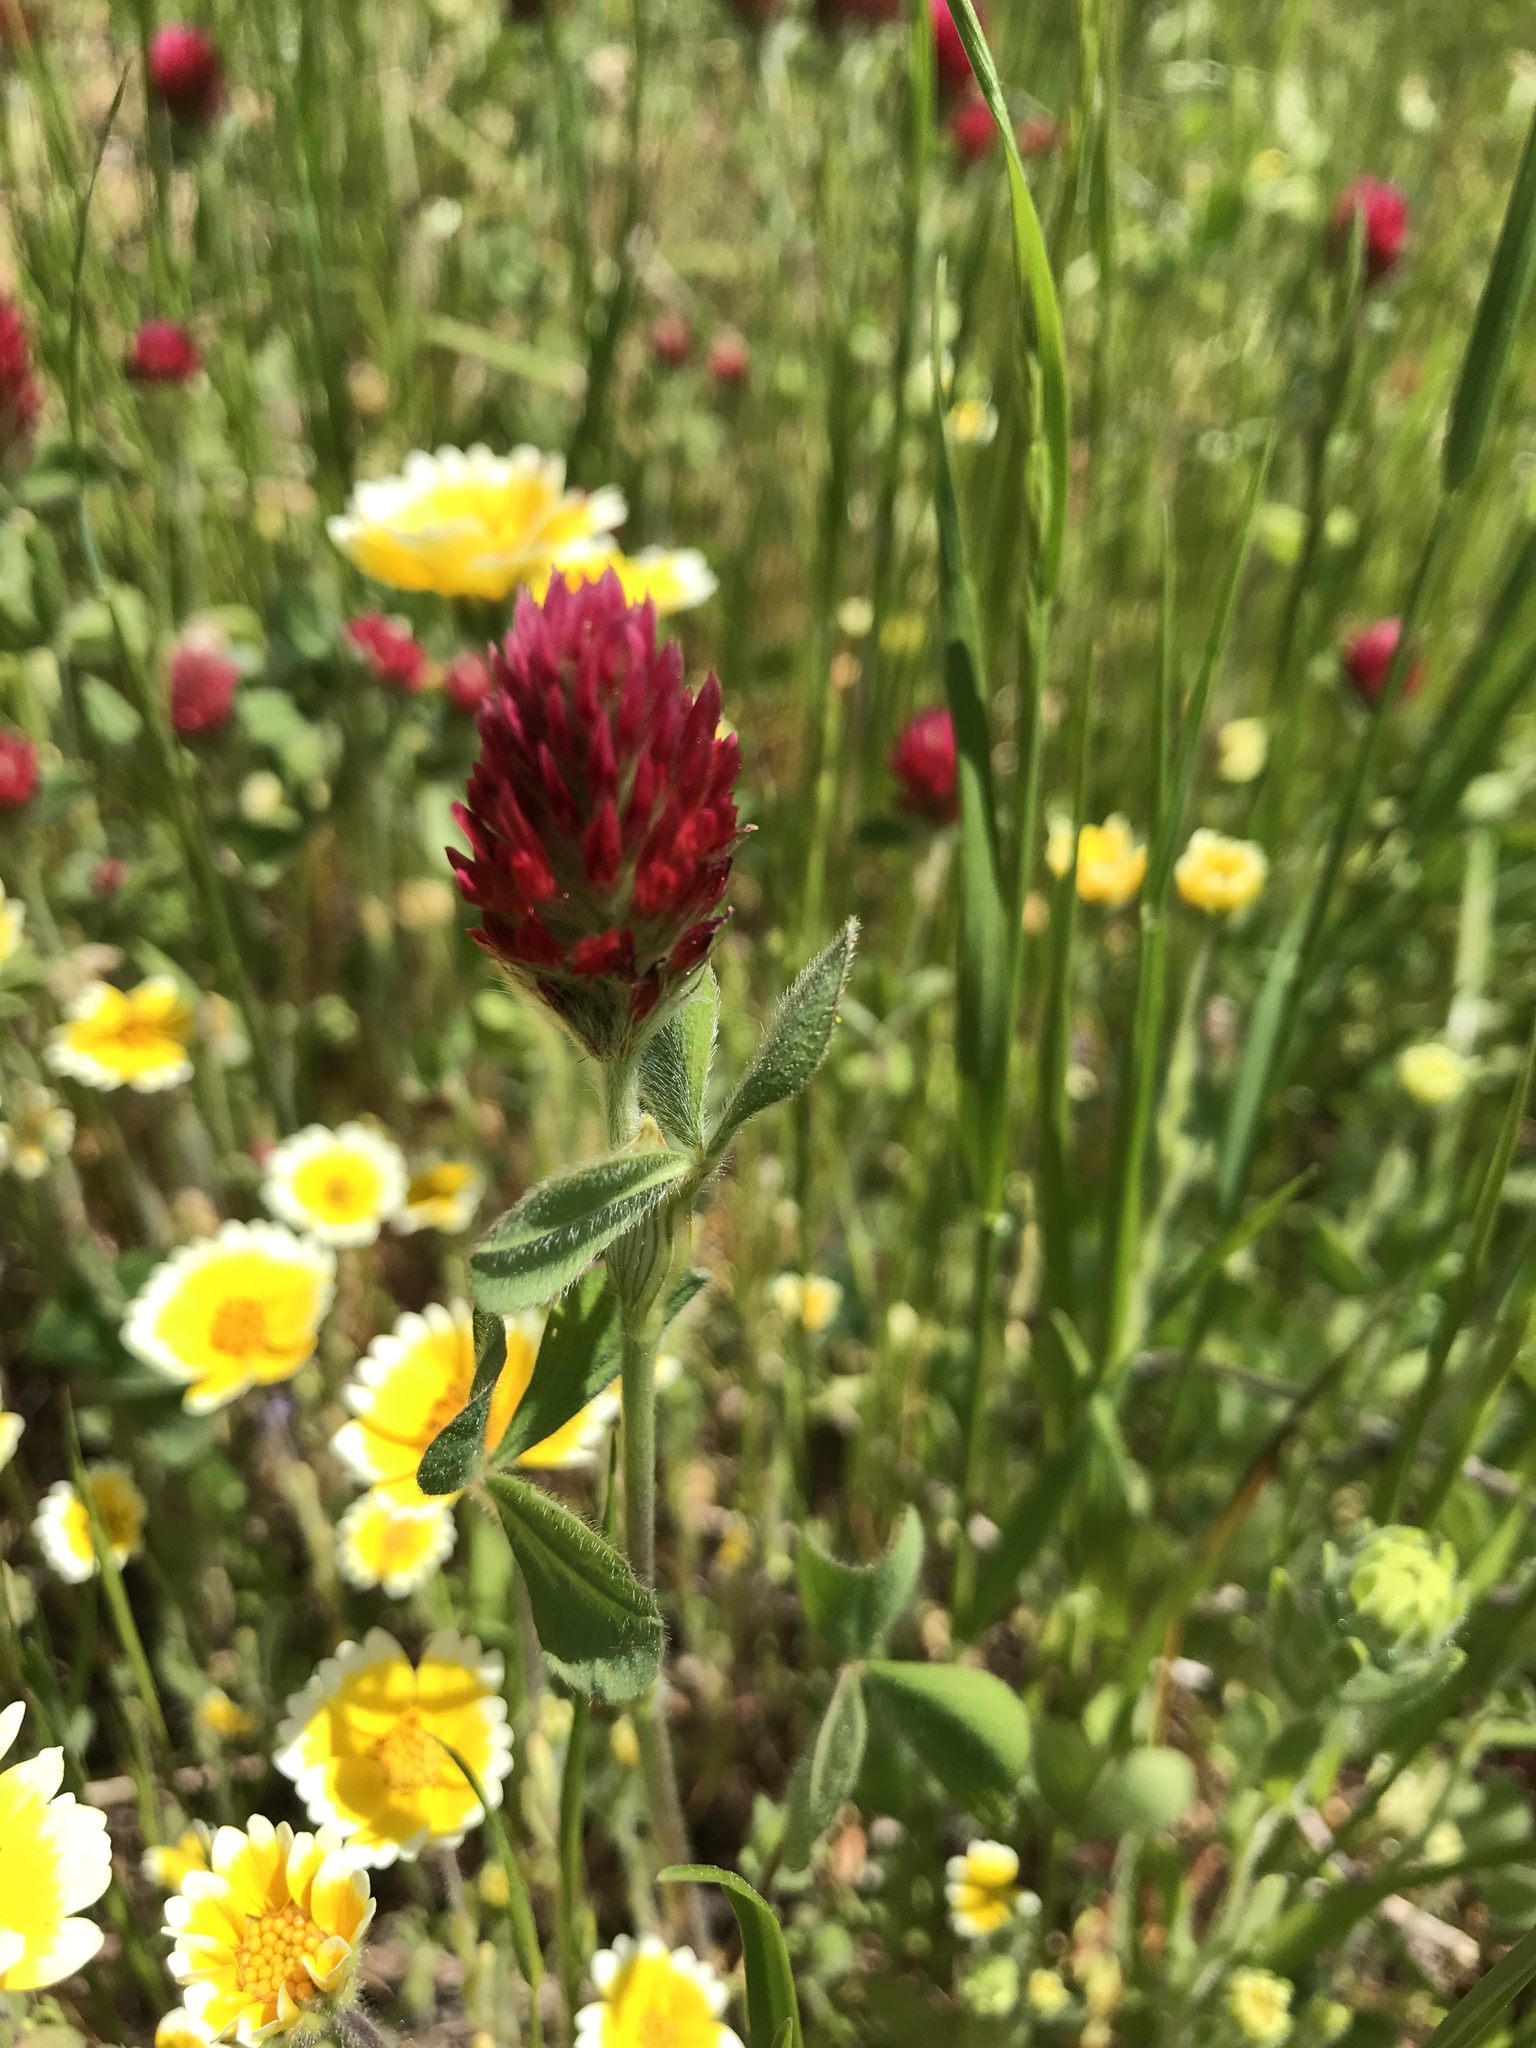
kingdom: Plantae
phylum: Tracheophyta
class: Magnoliopsida
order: Fabales
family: Fabaceae
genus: Trifolium
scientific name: Trifolium incarnatum
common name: Crimson clover
